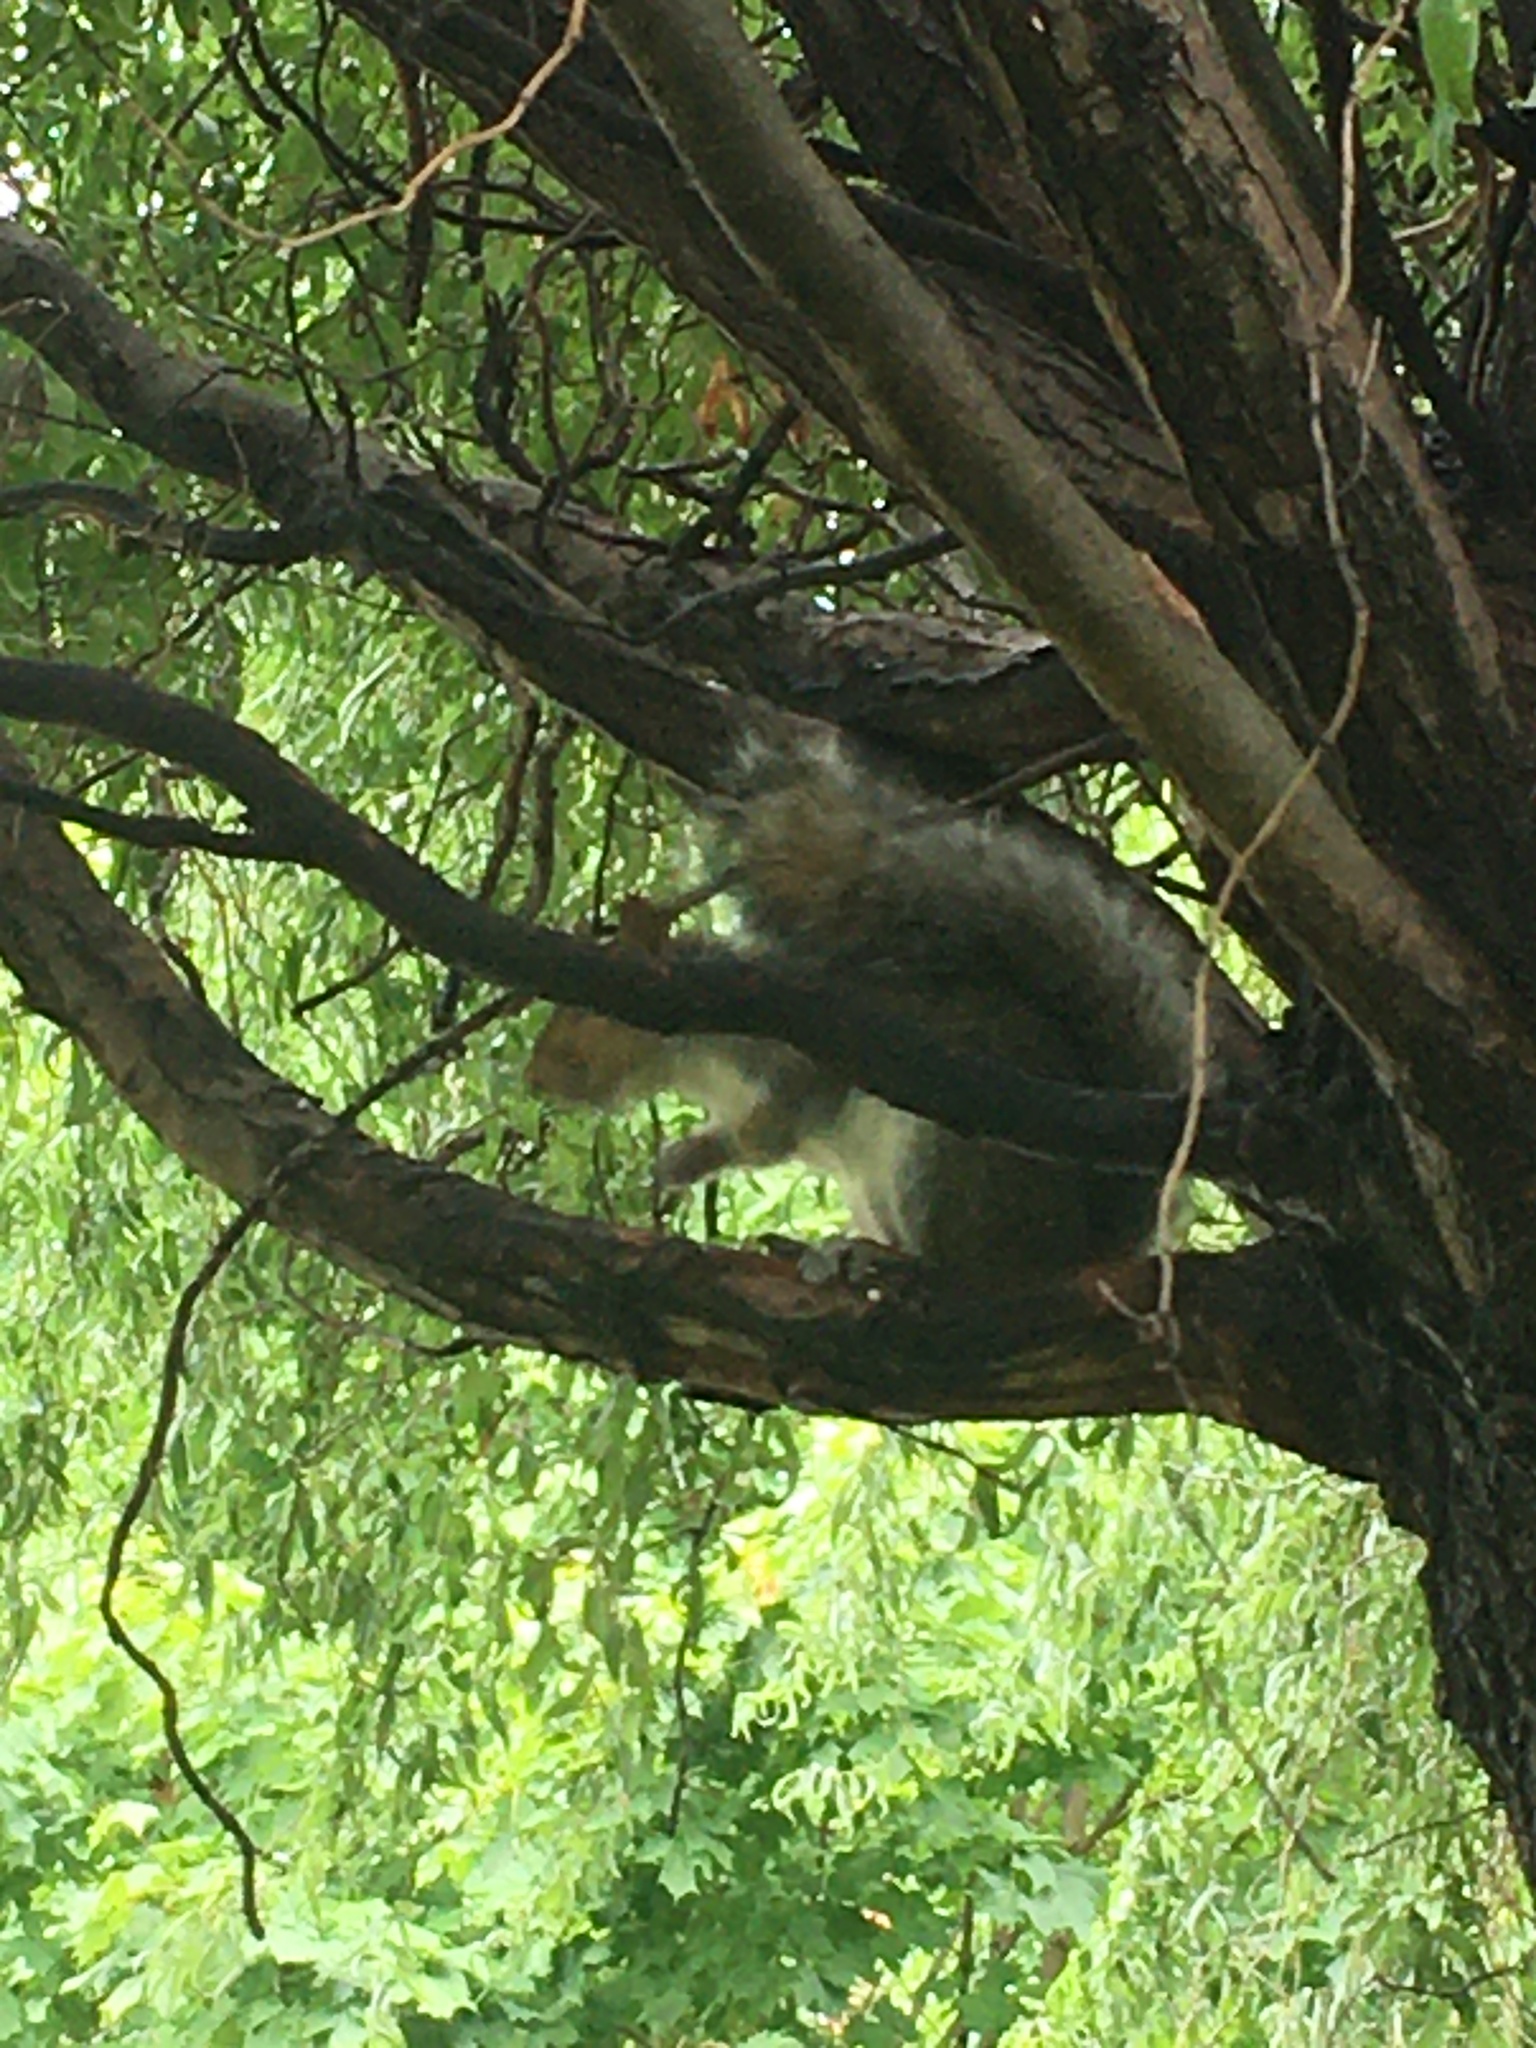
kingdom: Animalia
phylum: Chordata
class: Mammalia
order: Rodentia
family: Sciuridae
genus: Sciurus
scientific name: Sciurus carolinensis
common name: Eastern gray squirrel
